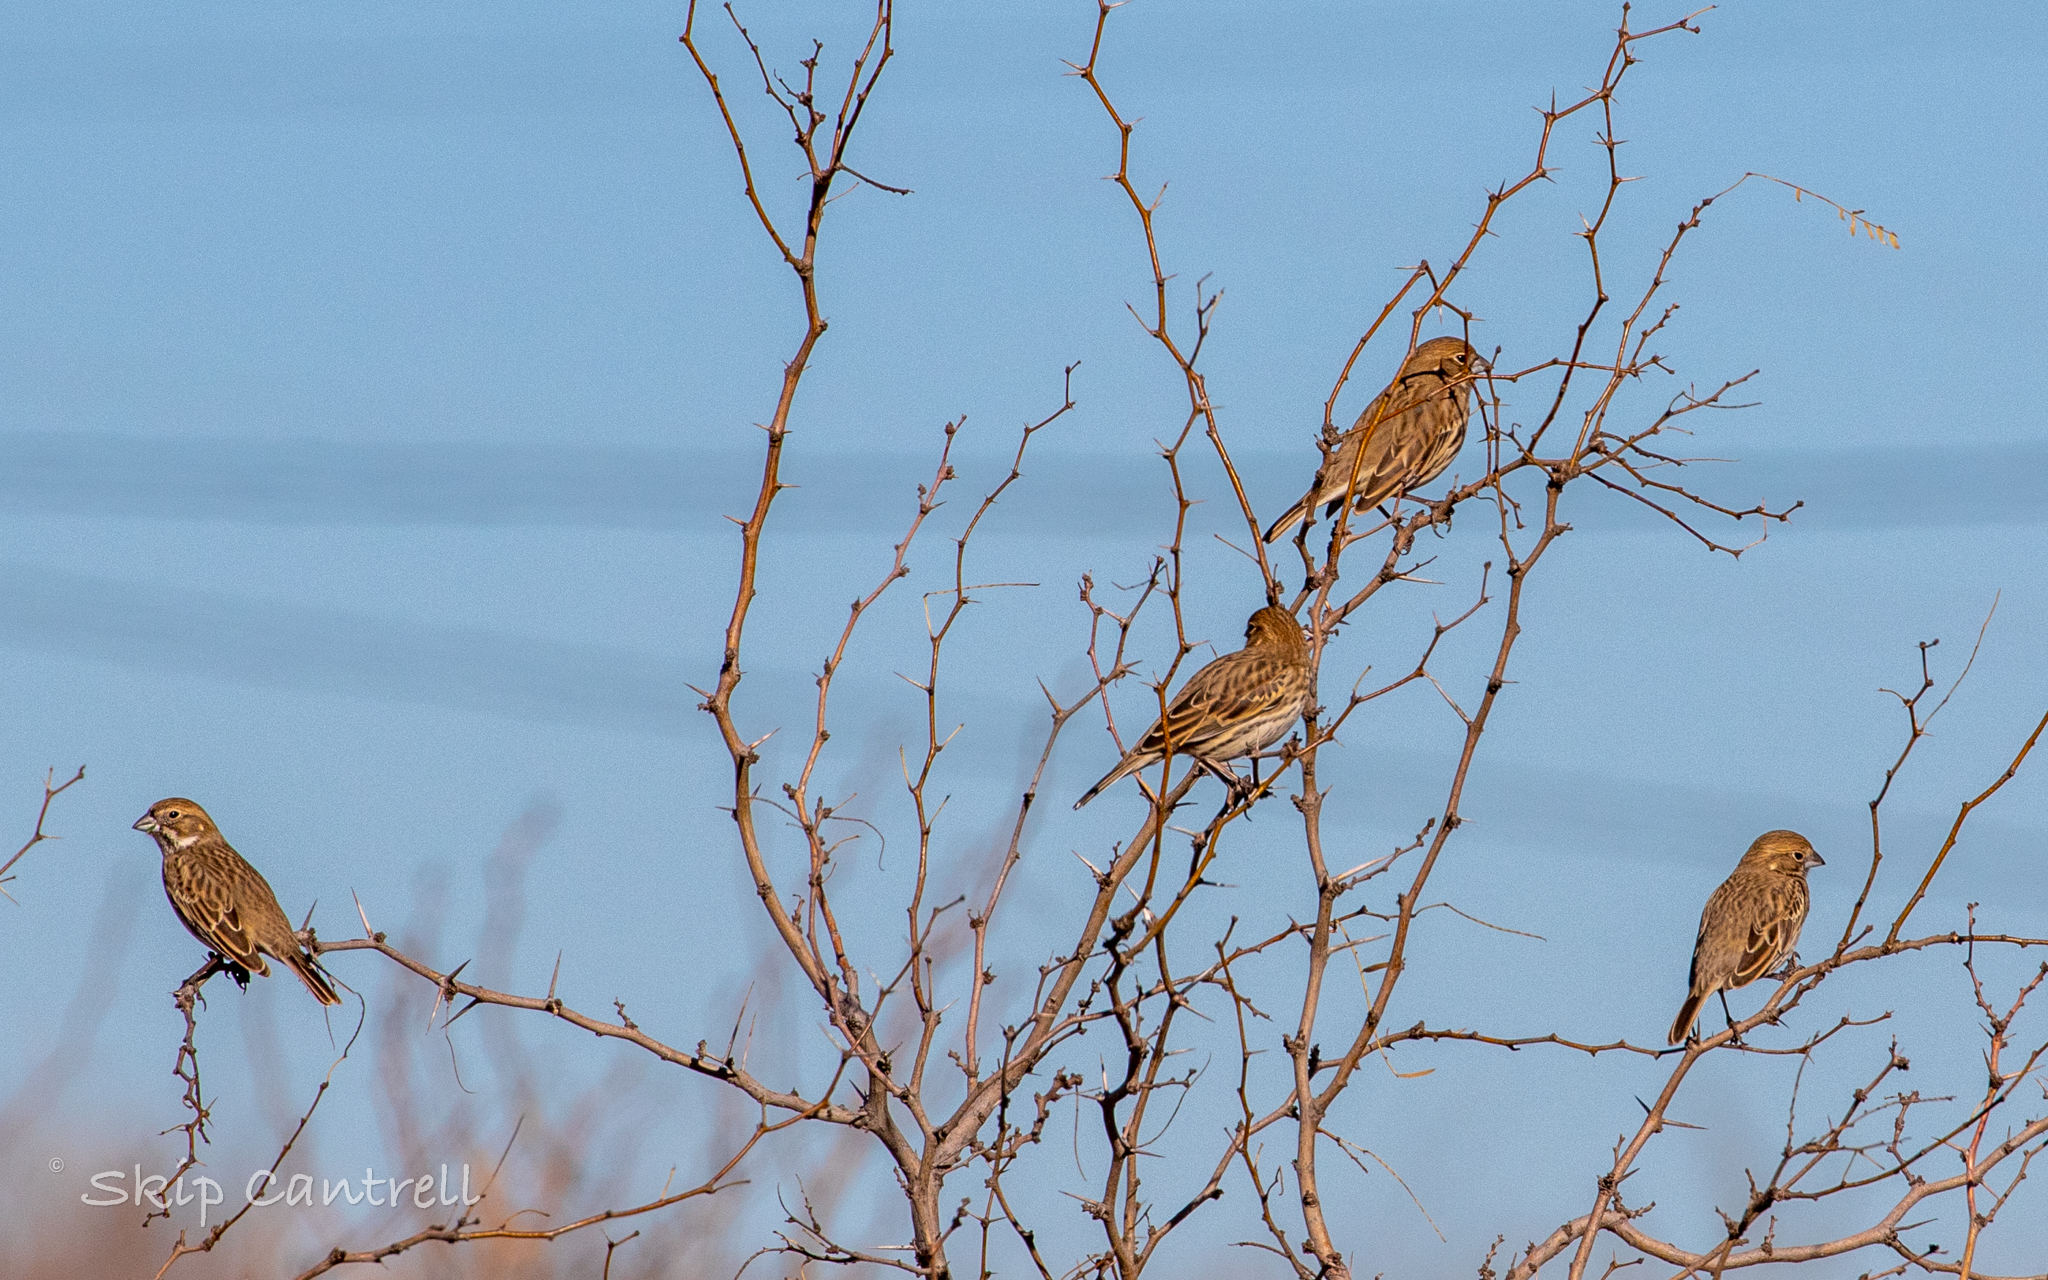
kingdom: Animalia
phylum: Chordata
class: Aves
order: Passeriformes
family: Passerellidae
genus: Calamospiza
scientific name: Calamospiza melanocorys
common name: Lark bunting
